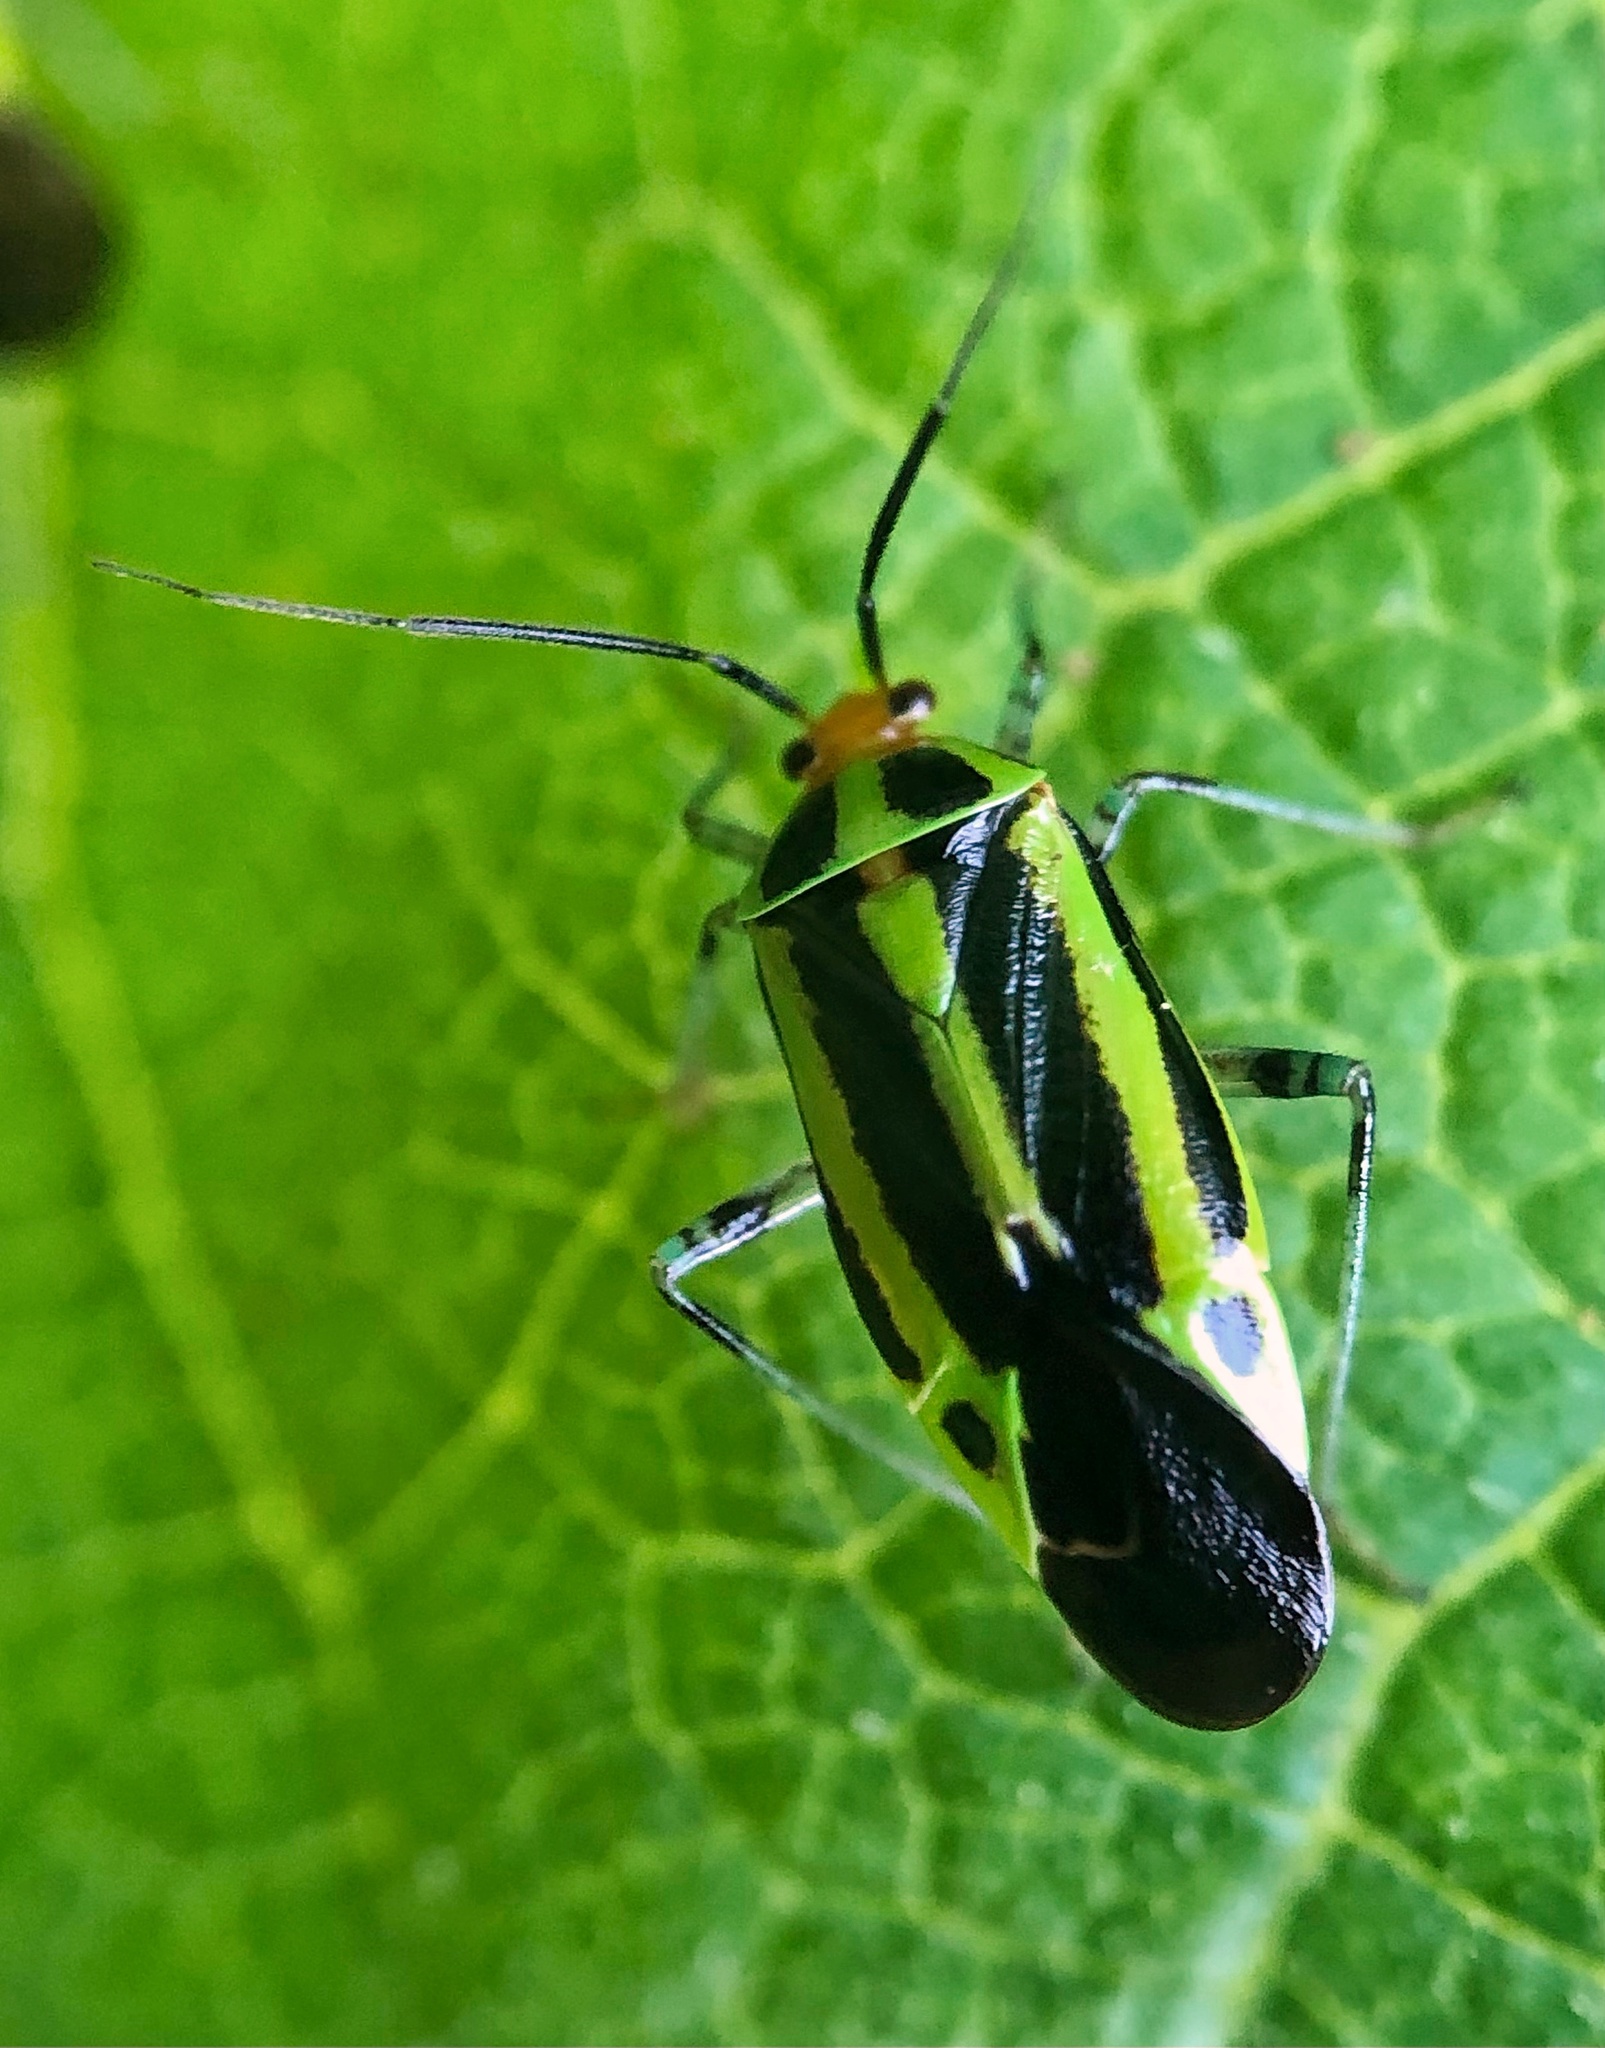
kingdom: Animalia
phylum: Arthropoda
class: Insecta
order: Hemiptera
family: Miridae
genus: Poecilocapsus
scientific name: Poecilocapsus lineatus
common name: Four-lined plant bug
